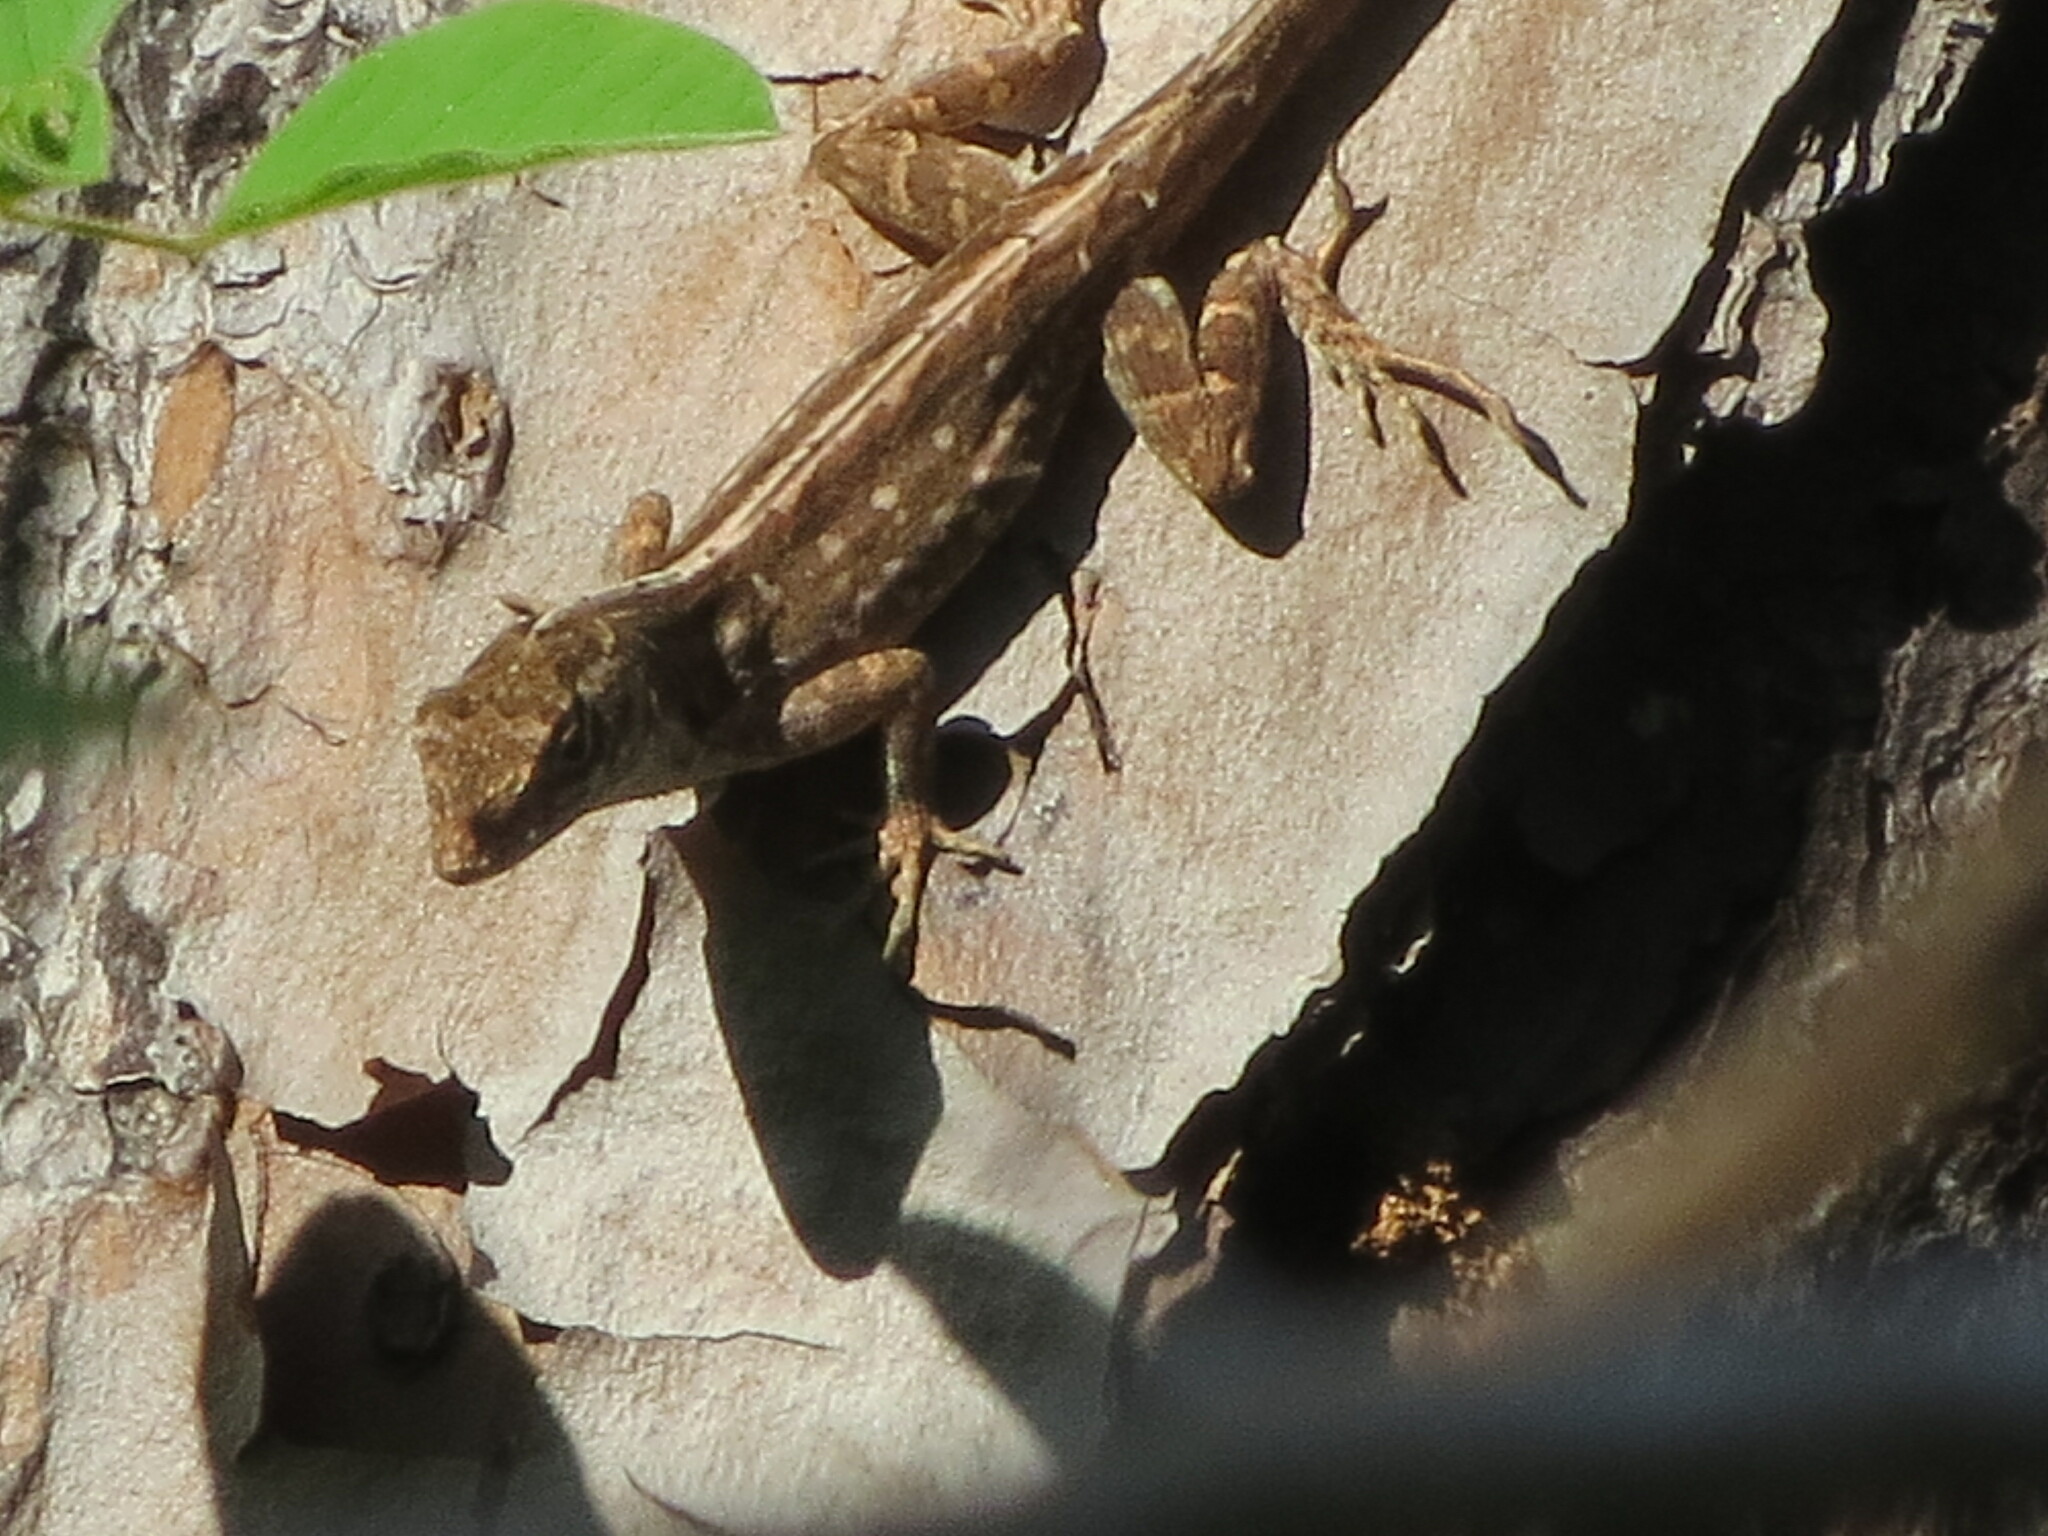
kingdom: Animalia
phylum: Chordata
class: Squamata
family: Dactyloidae
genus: Anolis
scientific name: Anolis sagrei
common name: Brown anole
